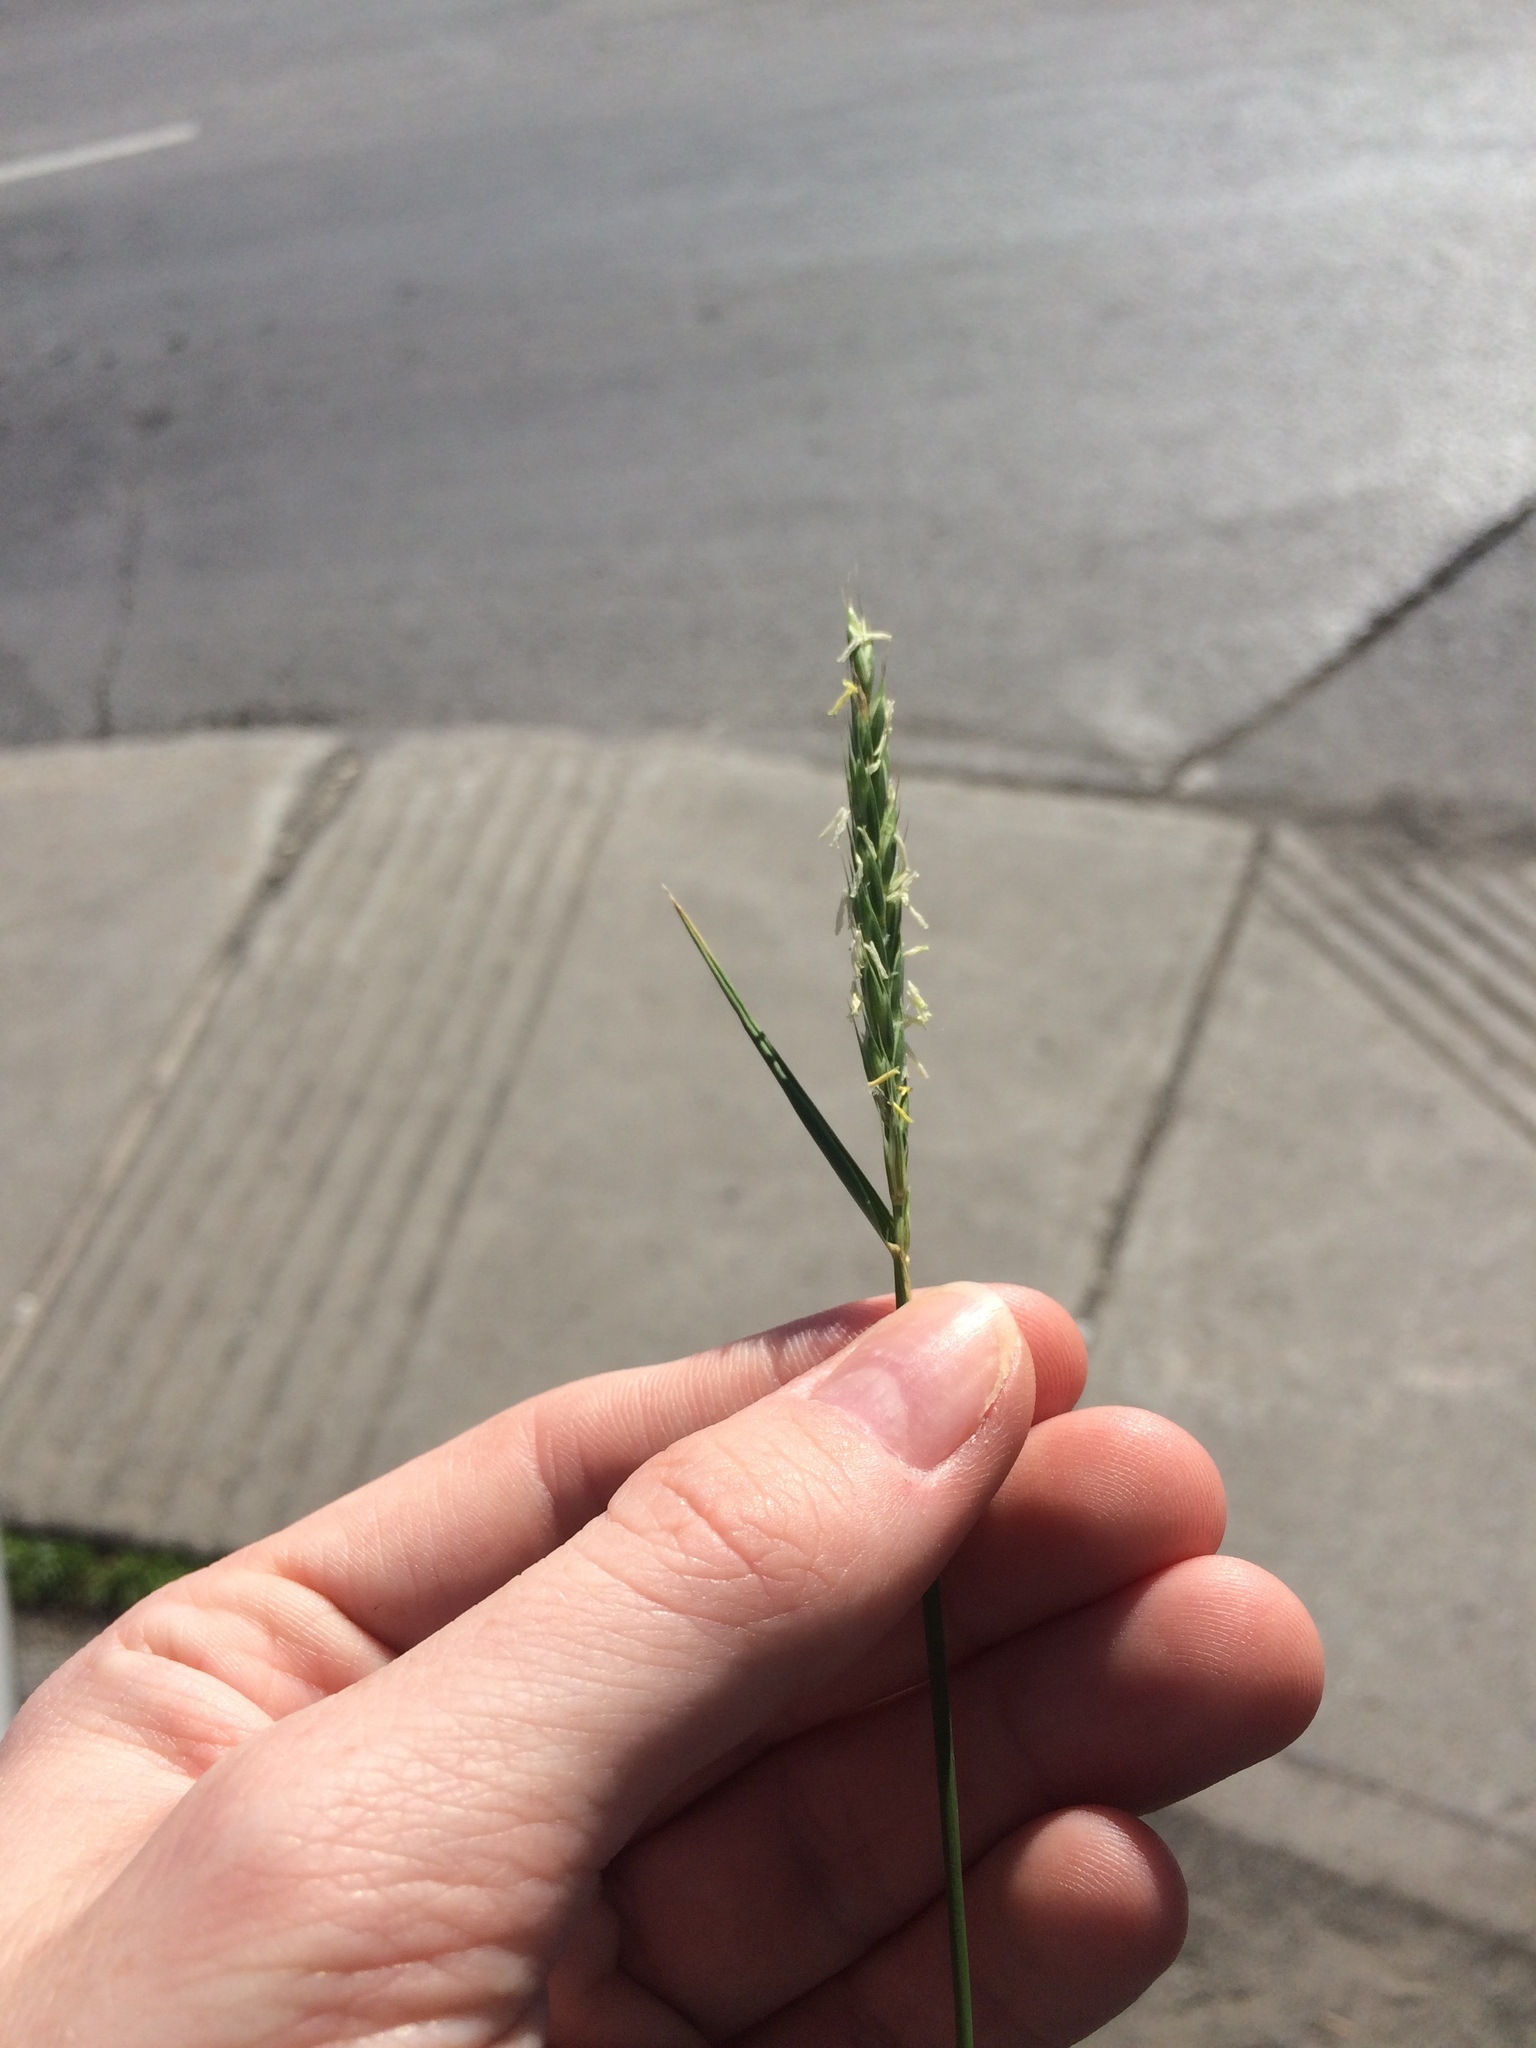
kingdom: Plantae
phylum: Tracheophyta
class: Liliopsida
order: Poales
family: Poaceae
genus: Elymus
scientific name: Elymus repens
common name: Quackgrass
